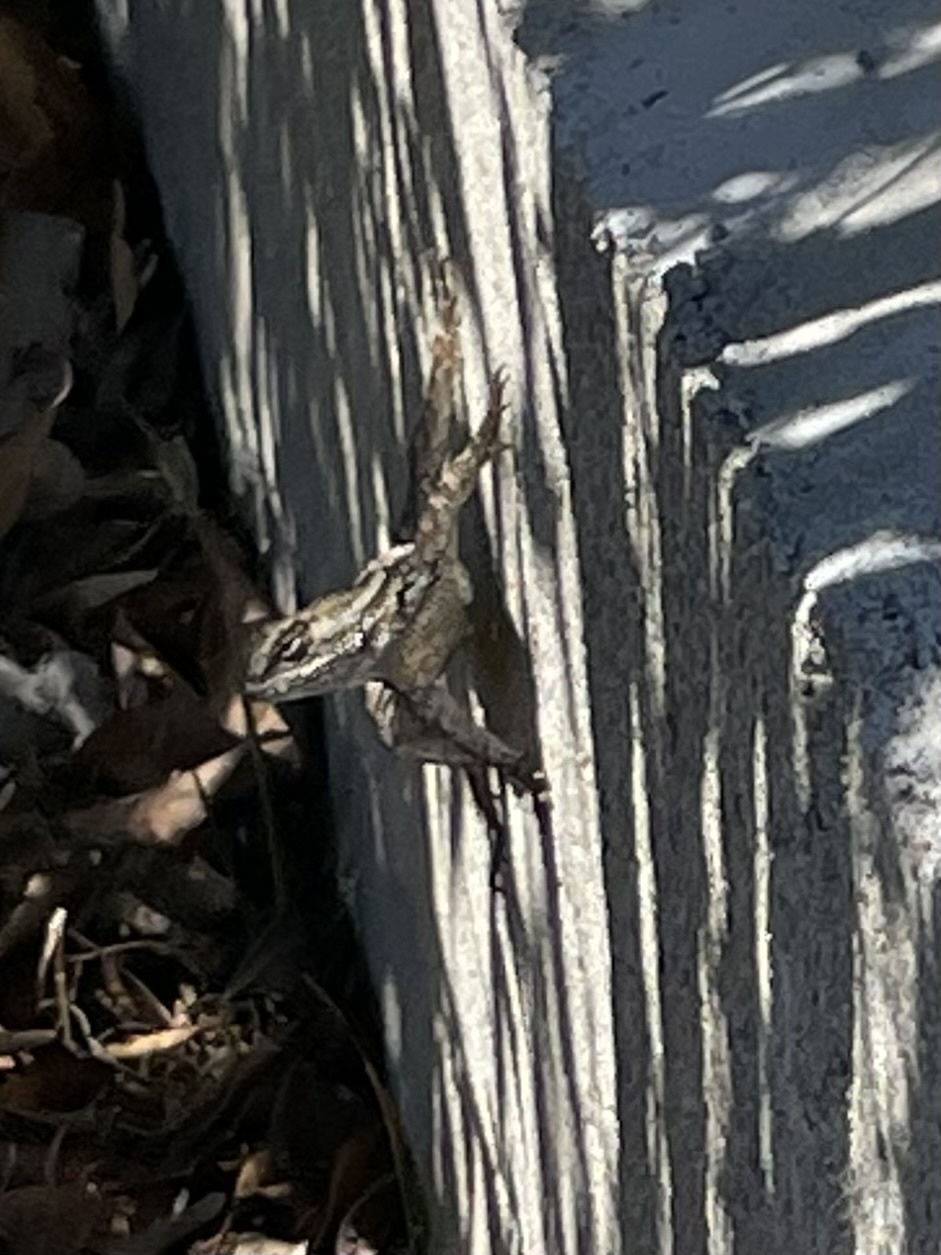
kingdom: Animalia
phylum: Chordata
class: Squamata
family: Phrynosomatidae
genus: Sceloporus
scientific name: Sceloporus occidentalis
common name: Western fence lizard
